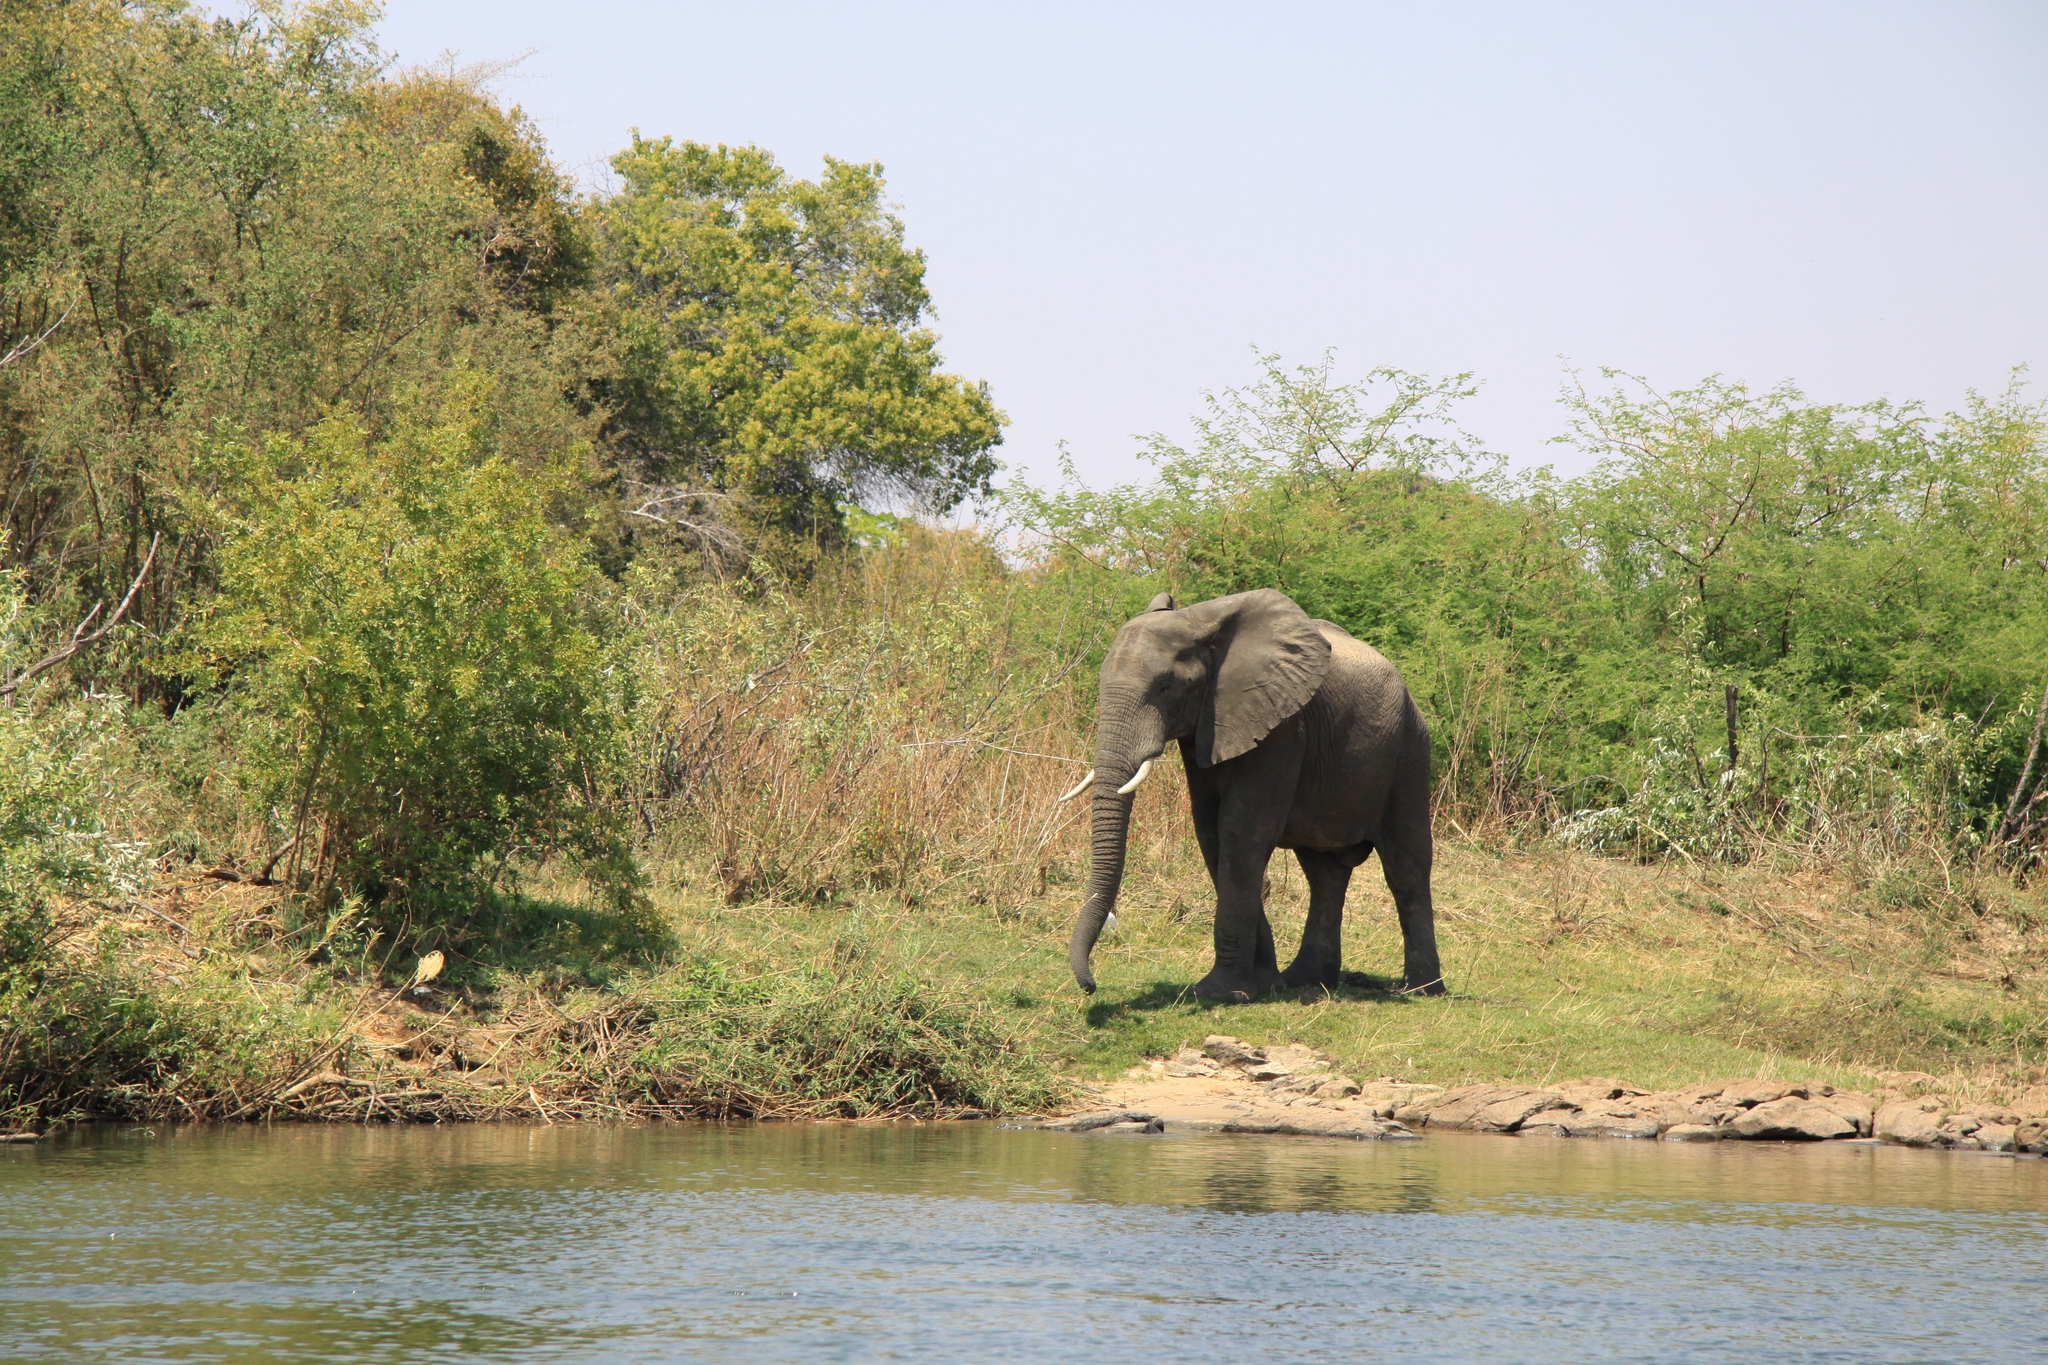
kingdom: Animalia
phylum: Chordata
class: Mammalia
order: Proboscidea
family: Elephantidae
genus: Loxodonta
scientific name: Loxodonta africana
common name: African elephant
